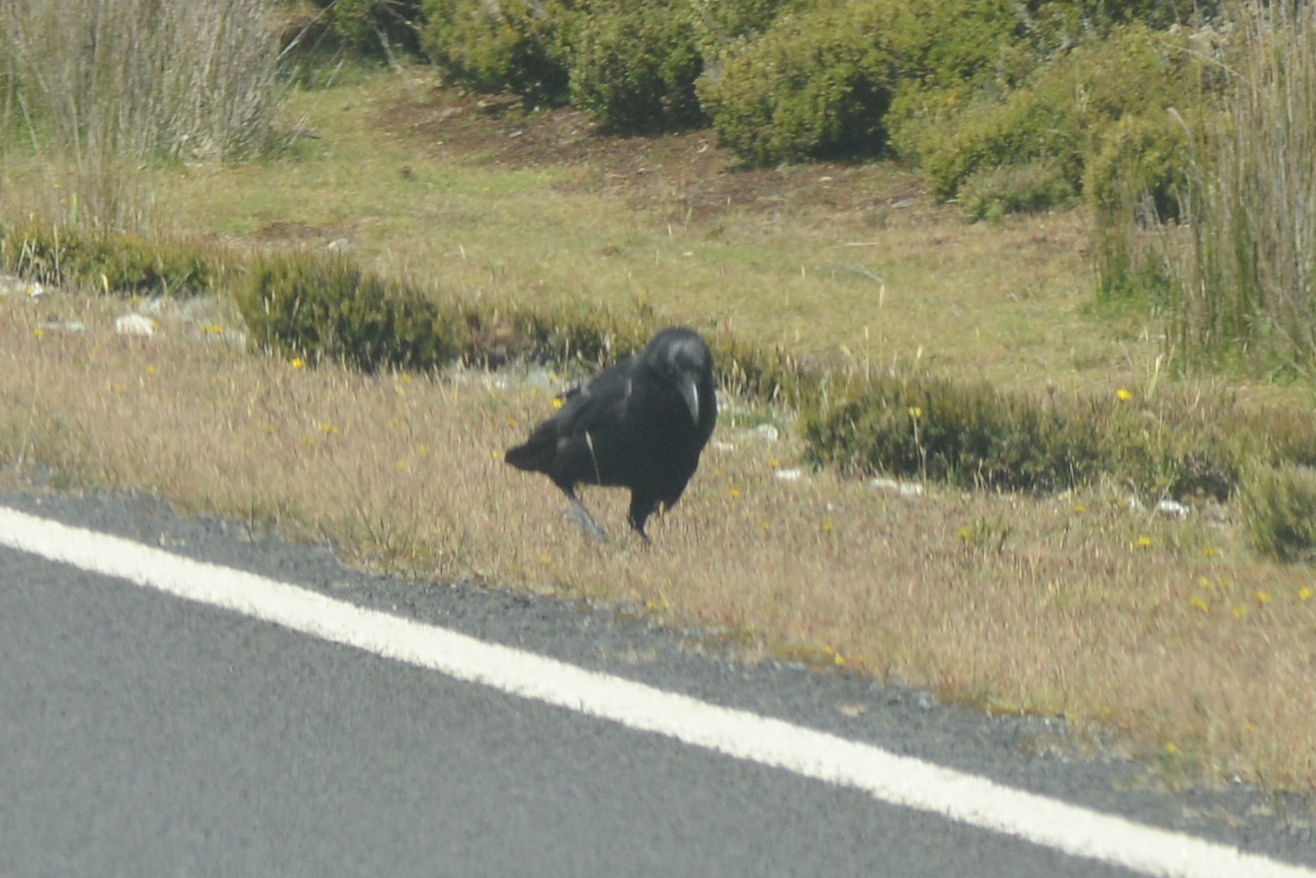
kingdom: Animalia
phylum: Chordata
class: Aves
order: Passeriformes
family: Corvidae
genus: Corvus
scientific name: Corvus tasmanicus
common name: Forest raven
